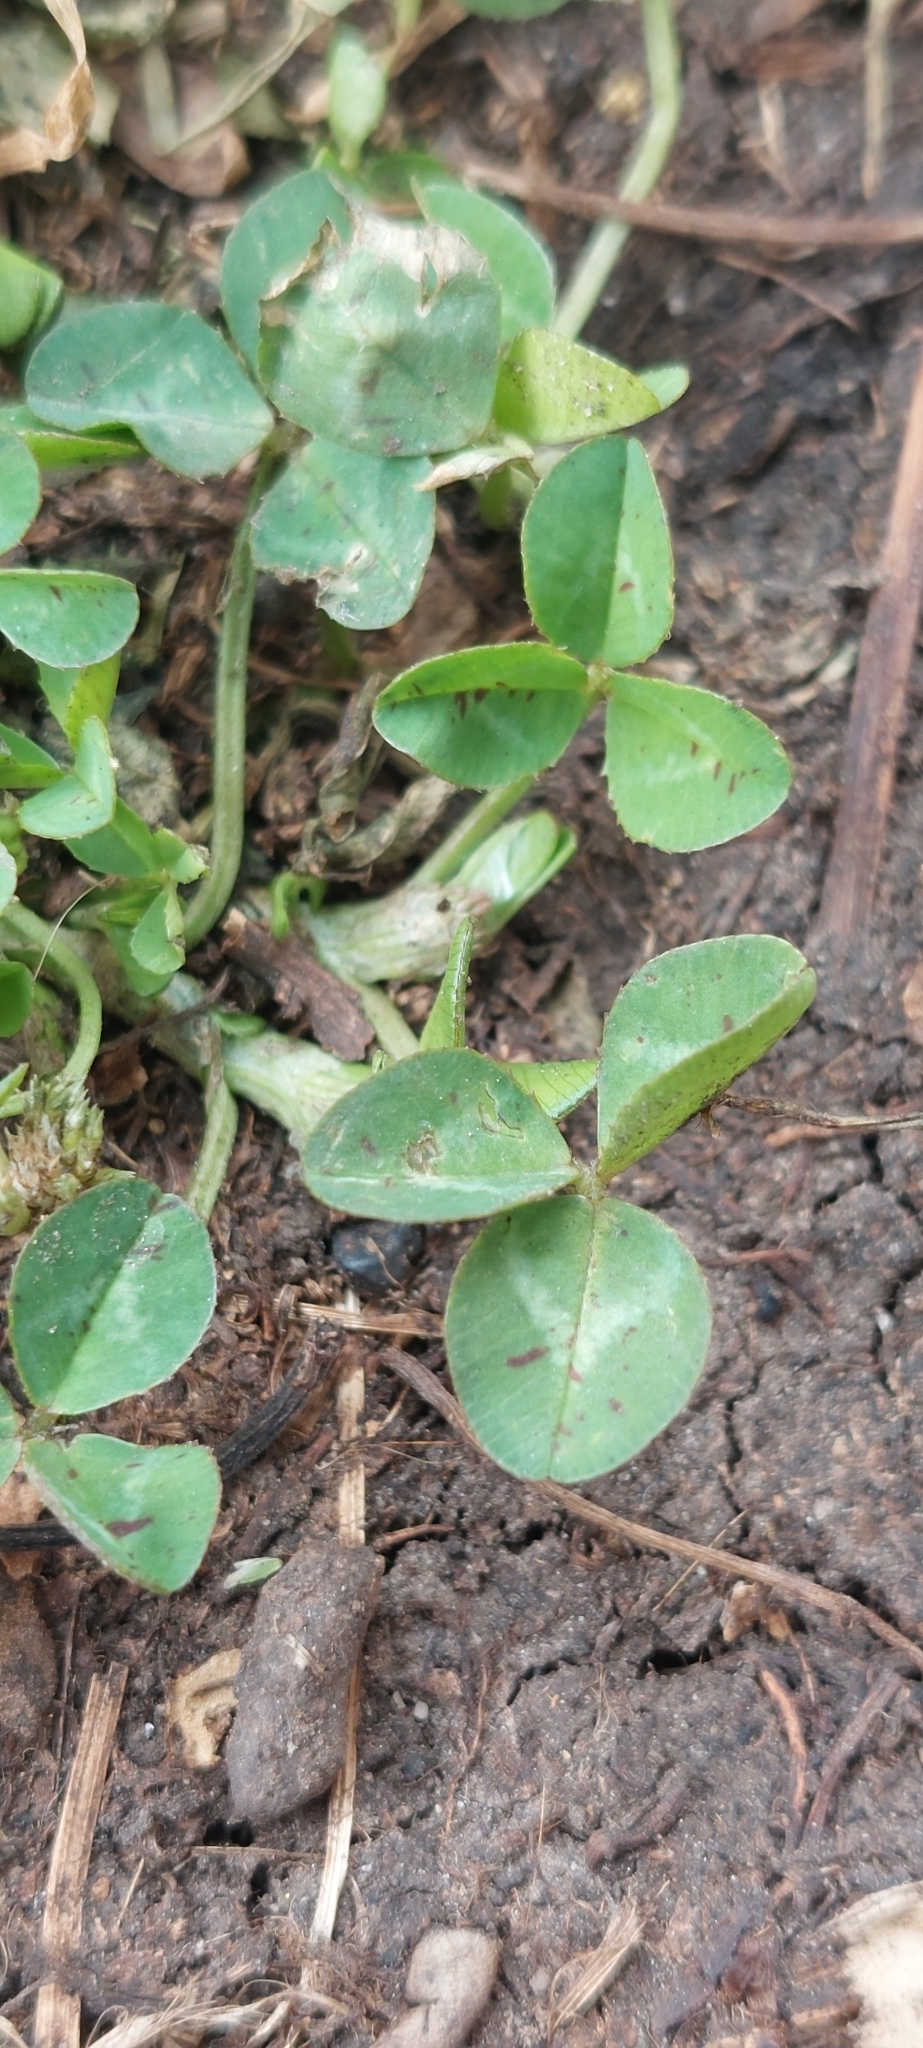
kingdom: Plantae
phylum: Tracheophyta
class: Magnoliopsida
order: Fabales
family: Fabaceae
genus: Trifolium
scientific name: Trifolium repens
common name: White clover
